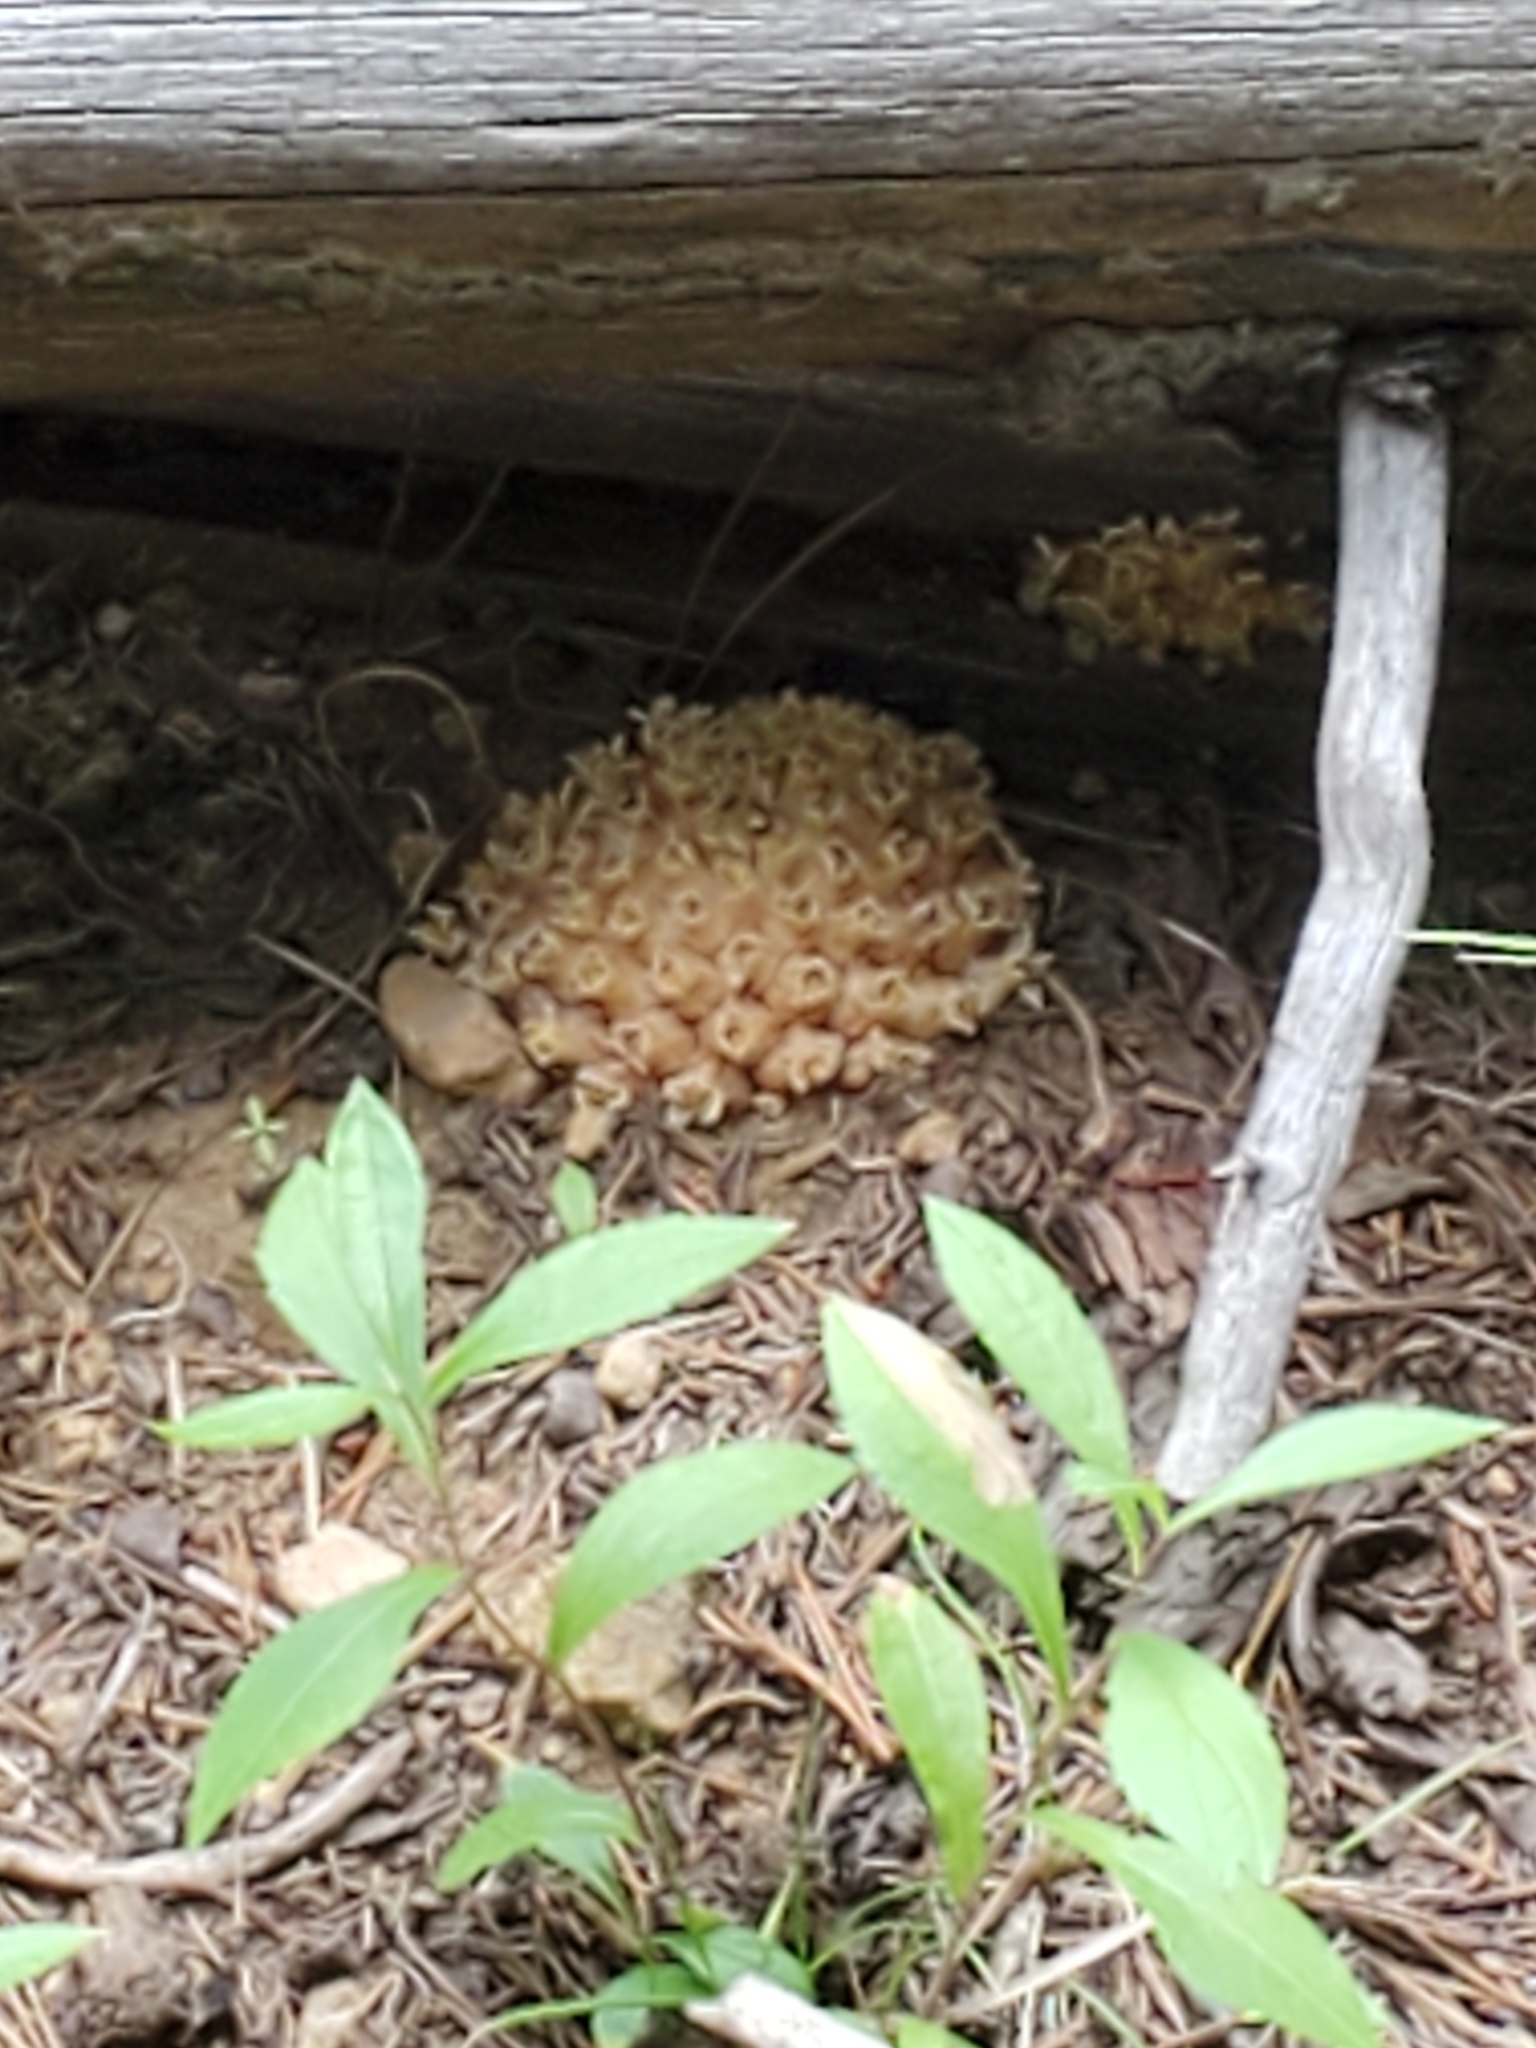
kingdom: Plantae
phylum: Tracheophyta
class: Magnoliopsida
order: Ericales
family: Ericaceae
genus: Hemitomes
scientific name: Hemitomes congestum
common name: Cone plant
